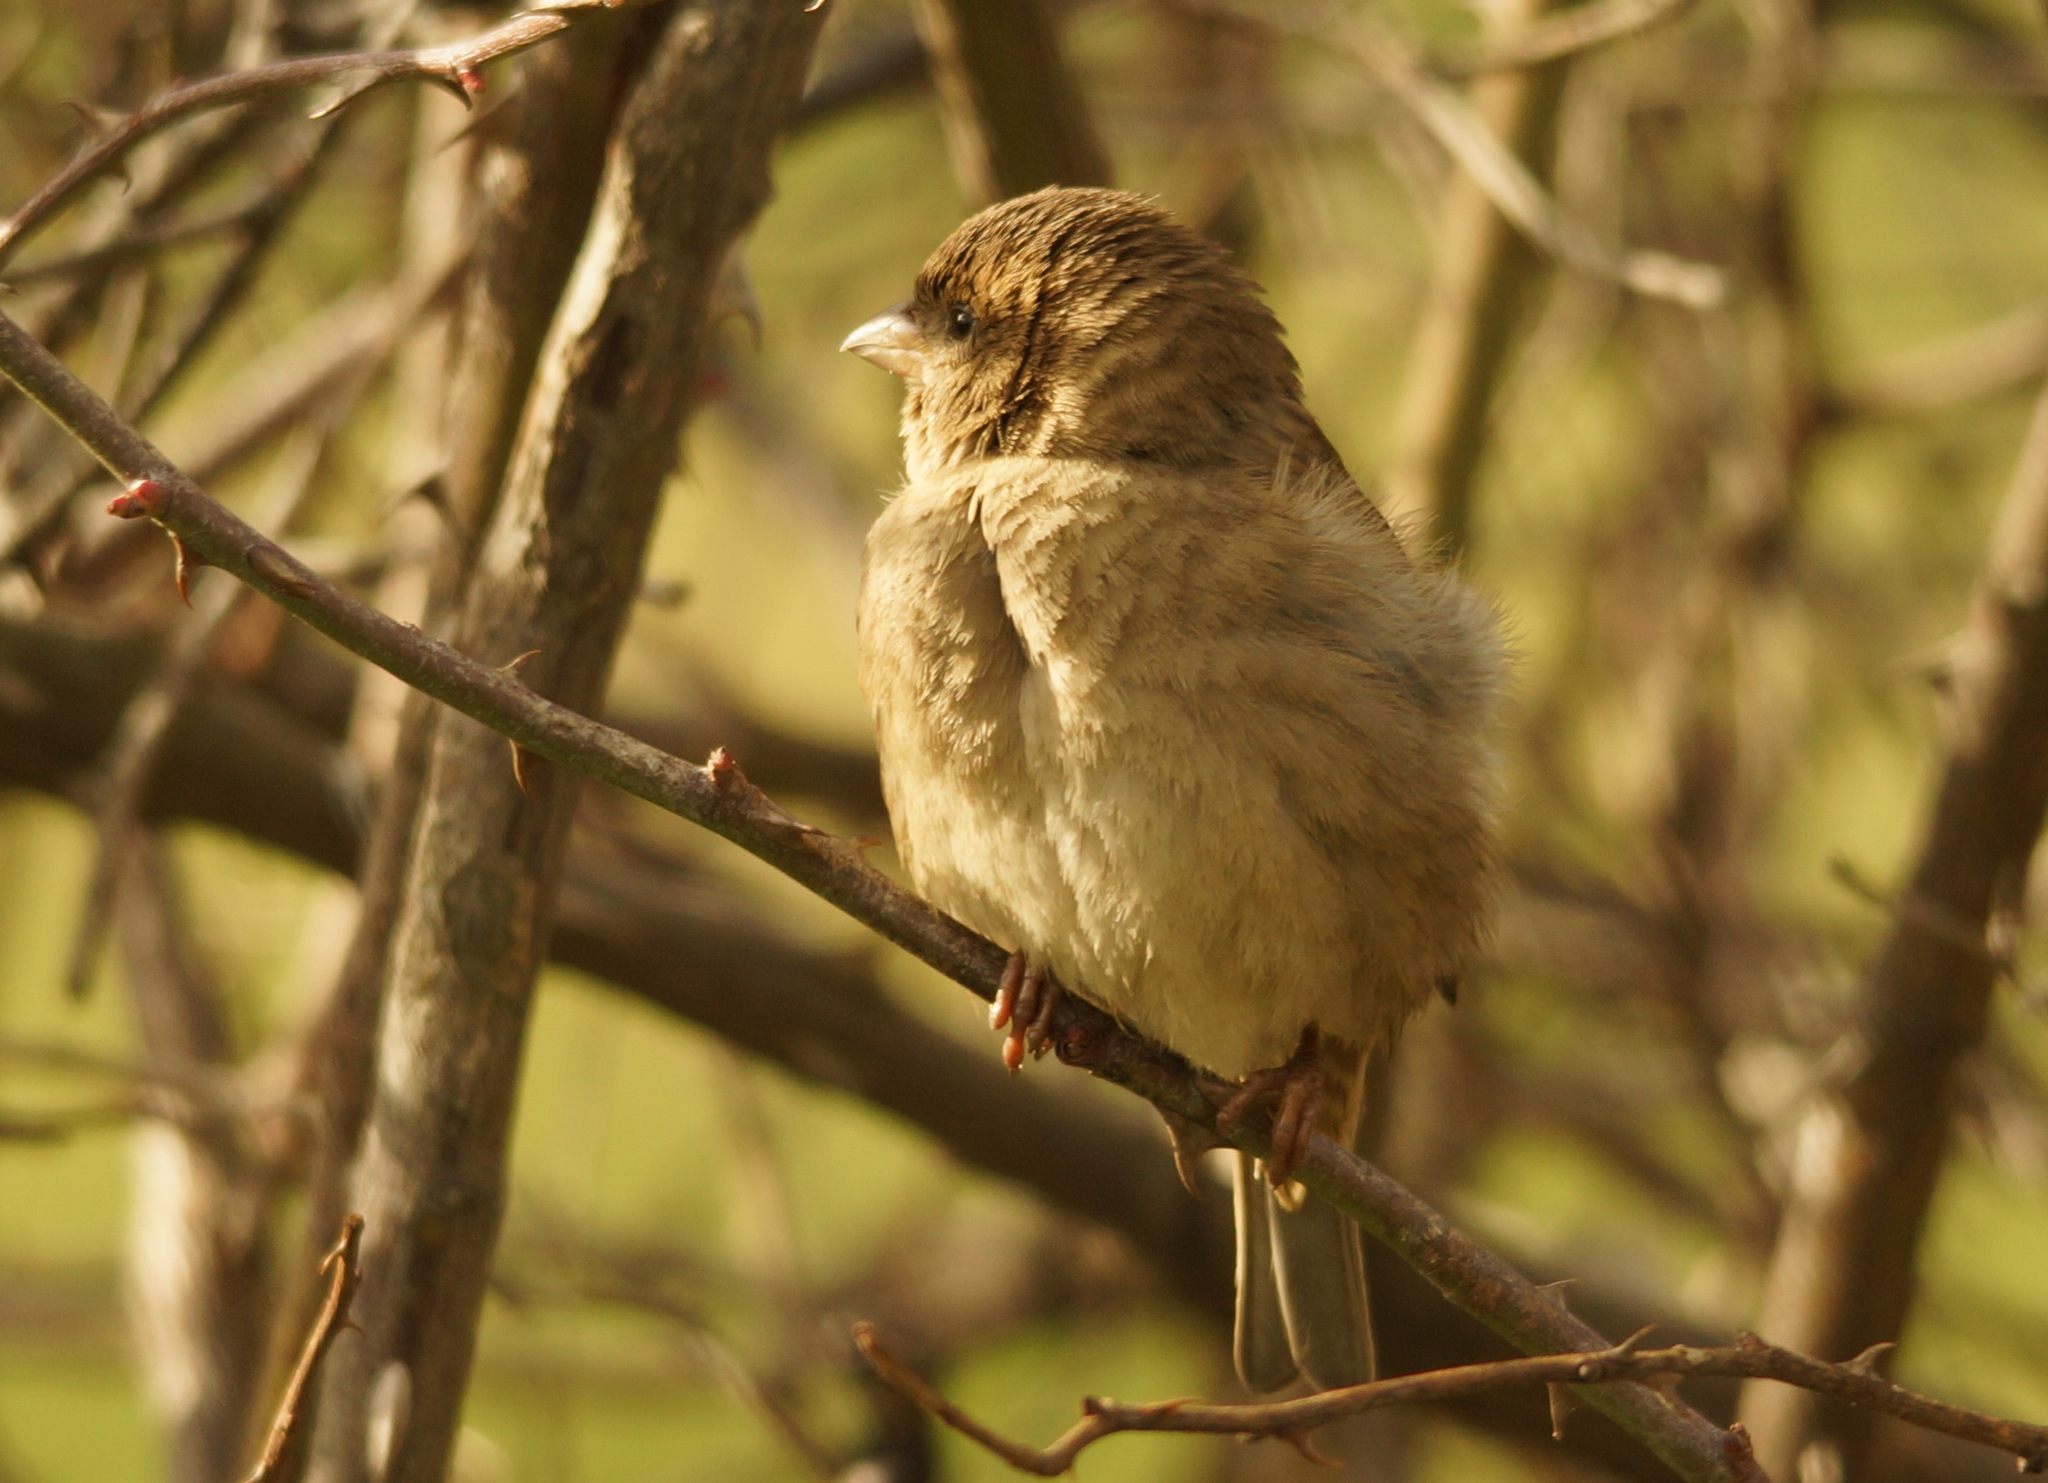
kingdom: Animalia
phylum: Chordata
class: Aves
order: Passeriformes
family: Passeridae
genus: Passer
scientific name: Passer domesticus
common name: House sparrow
